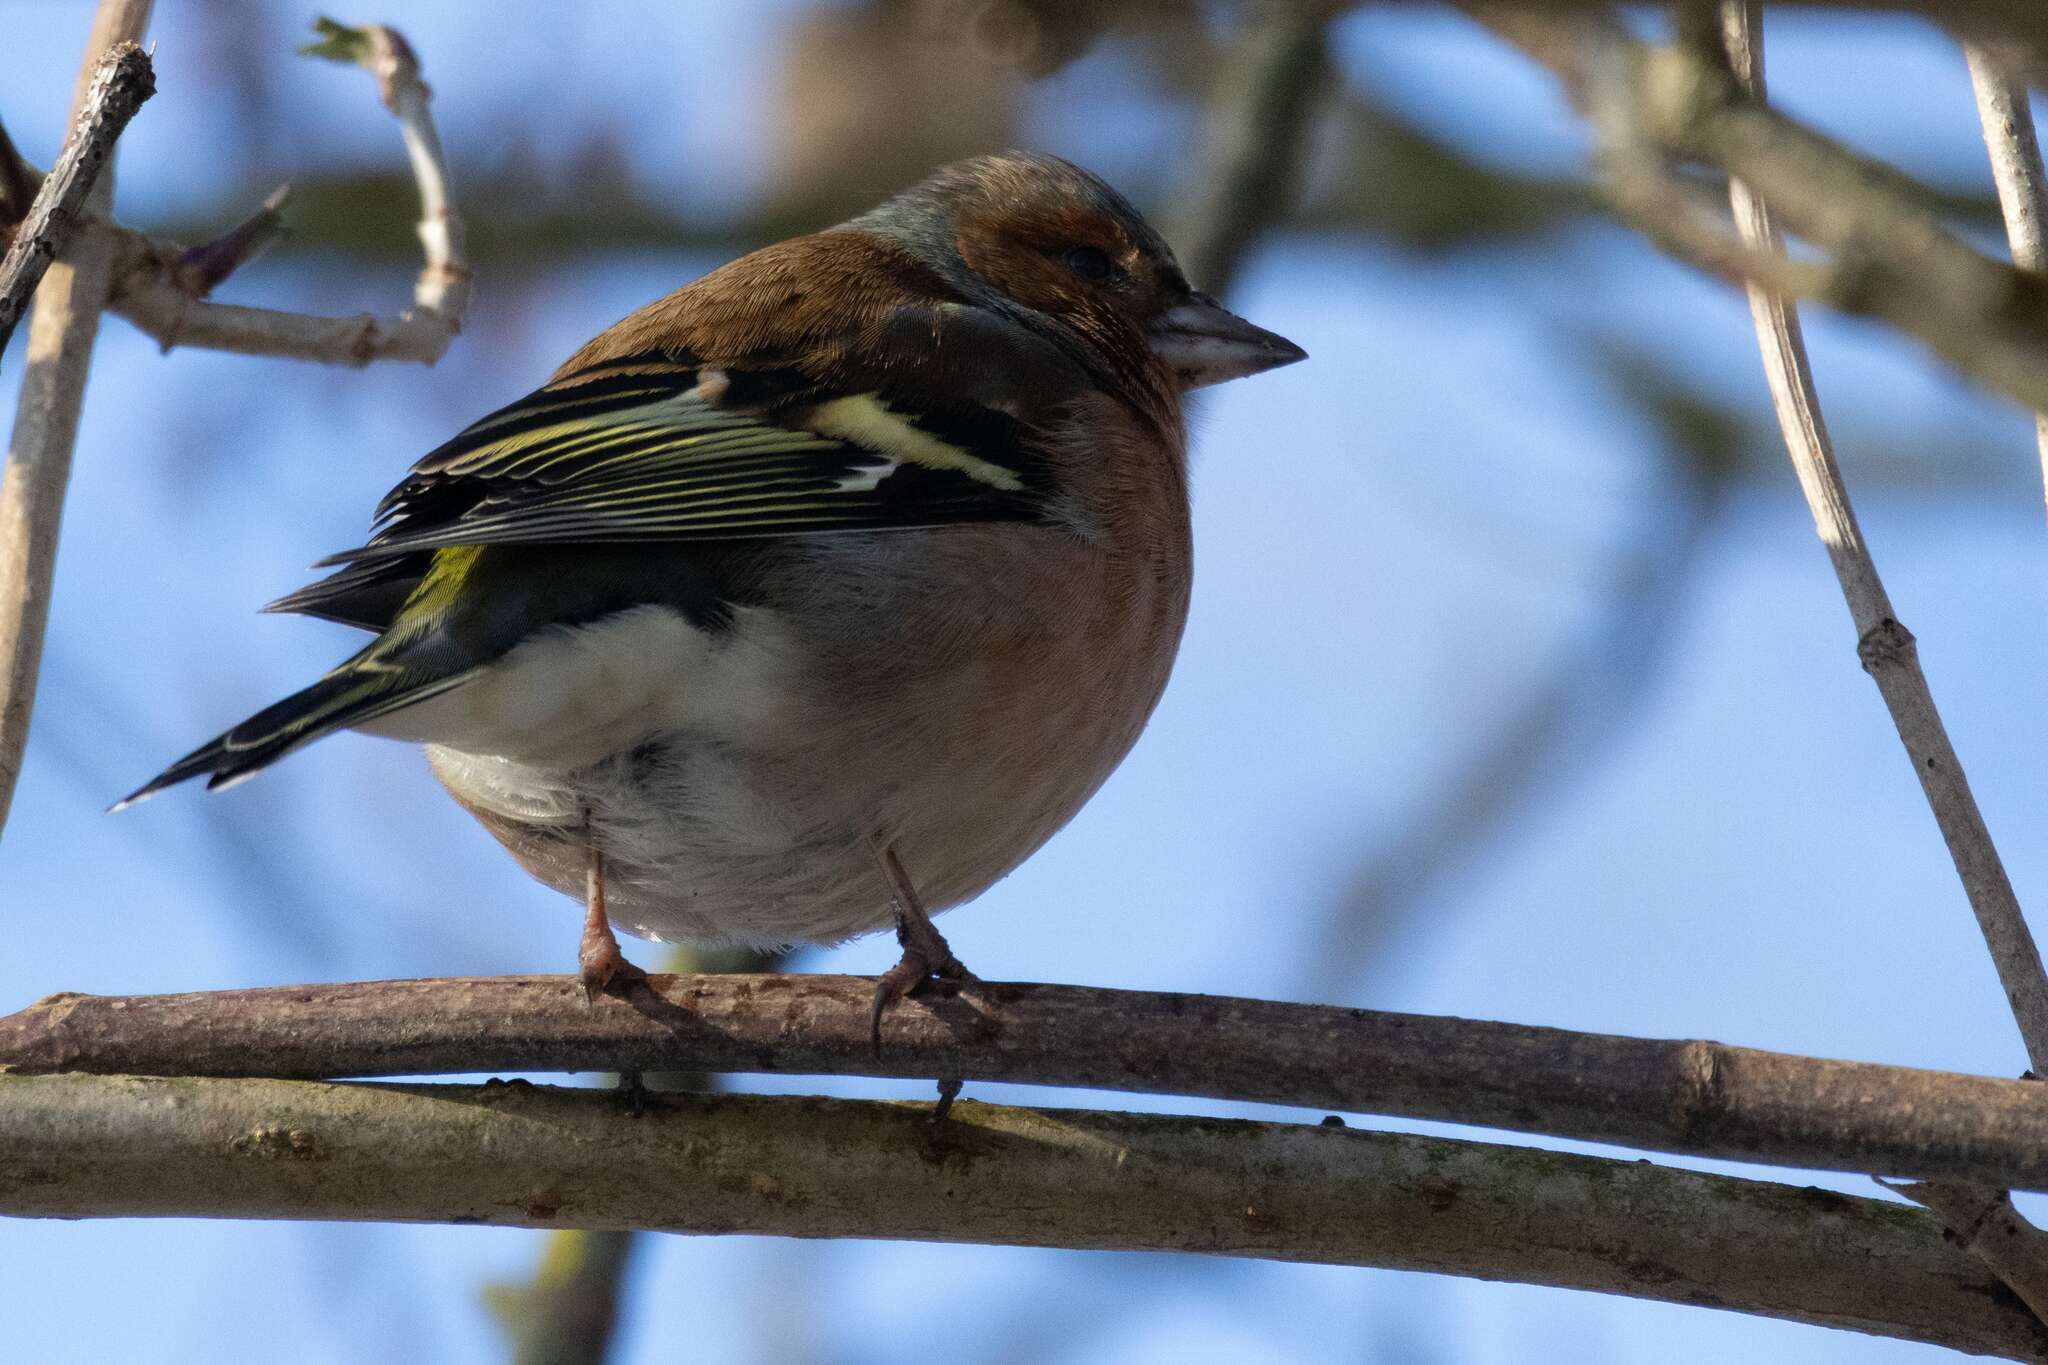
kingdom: Animalia
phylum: Chordata
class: Aves
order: Passeriformes
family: Fringillidae
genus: Fringilla
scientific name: Fringilla coelebs
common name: Common chaffinch
